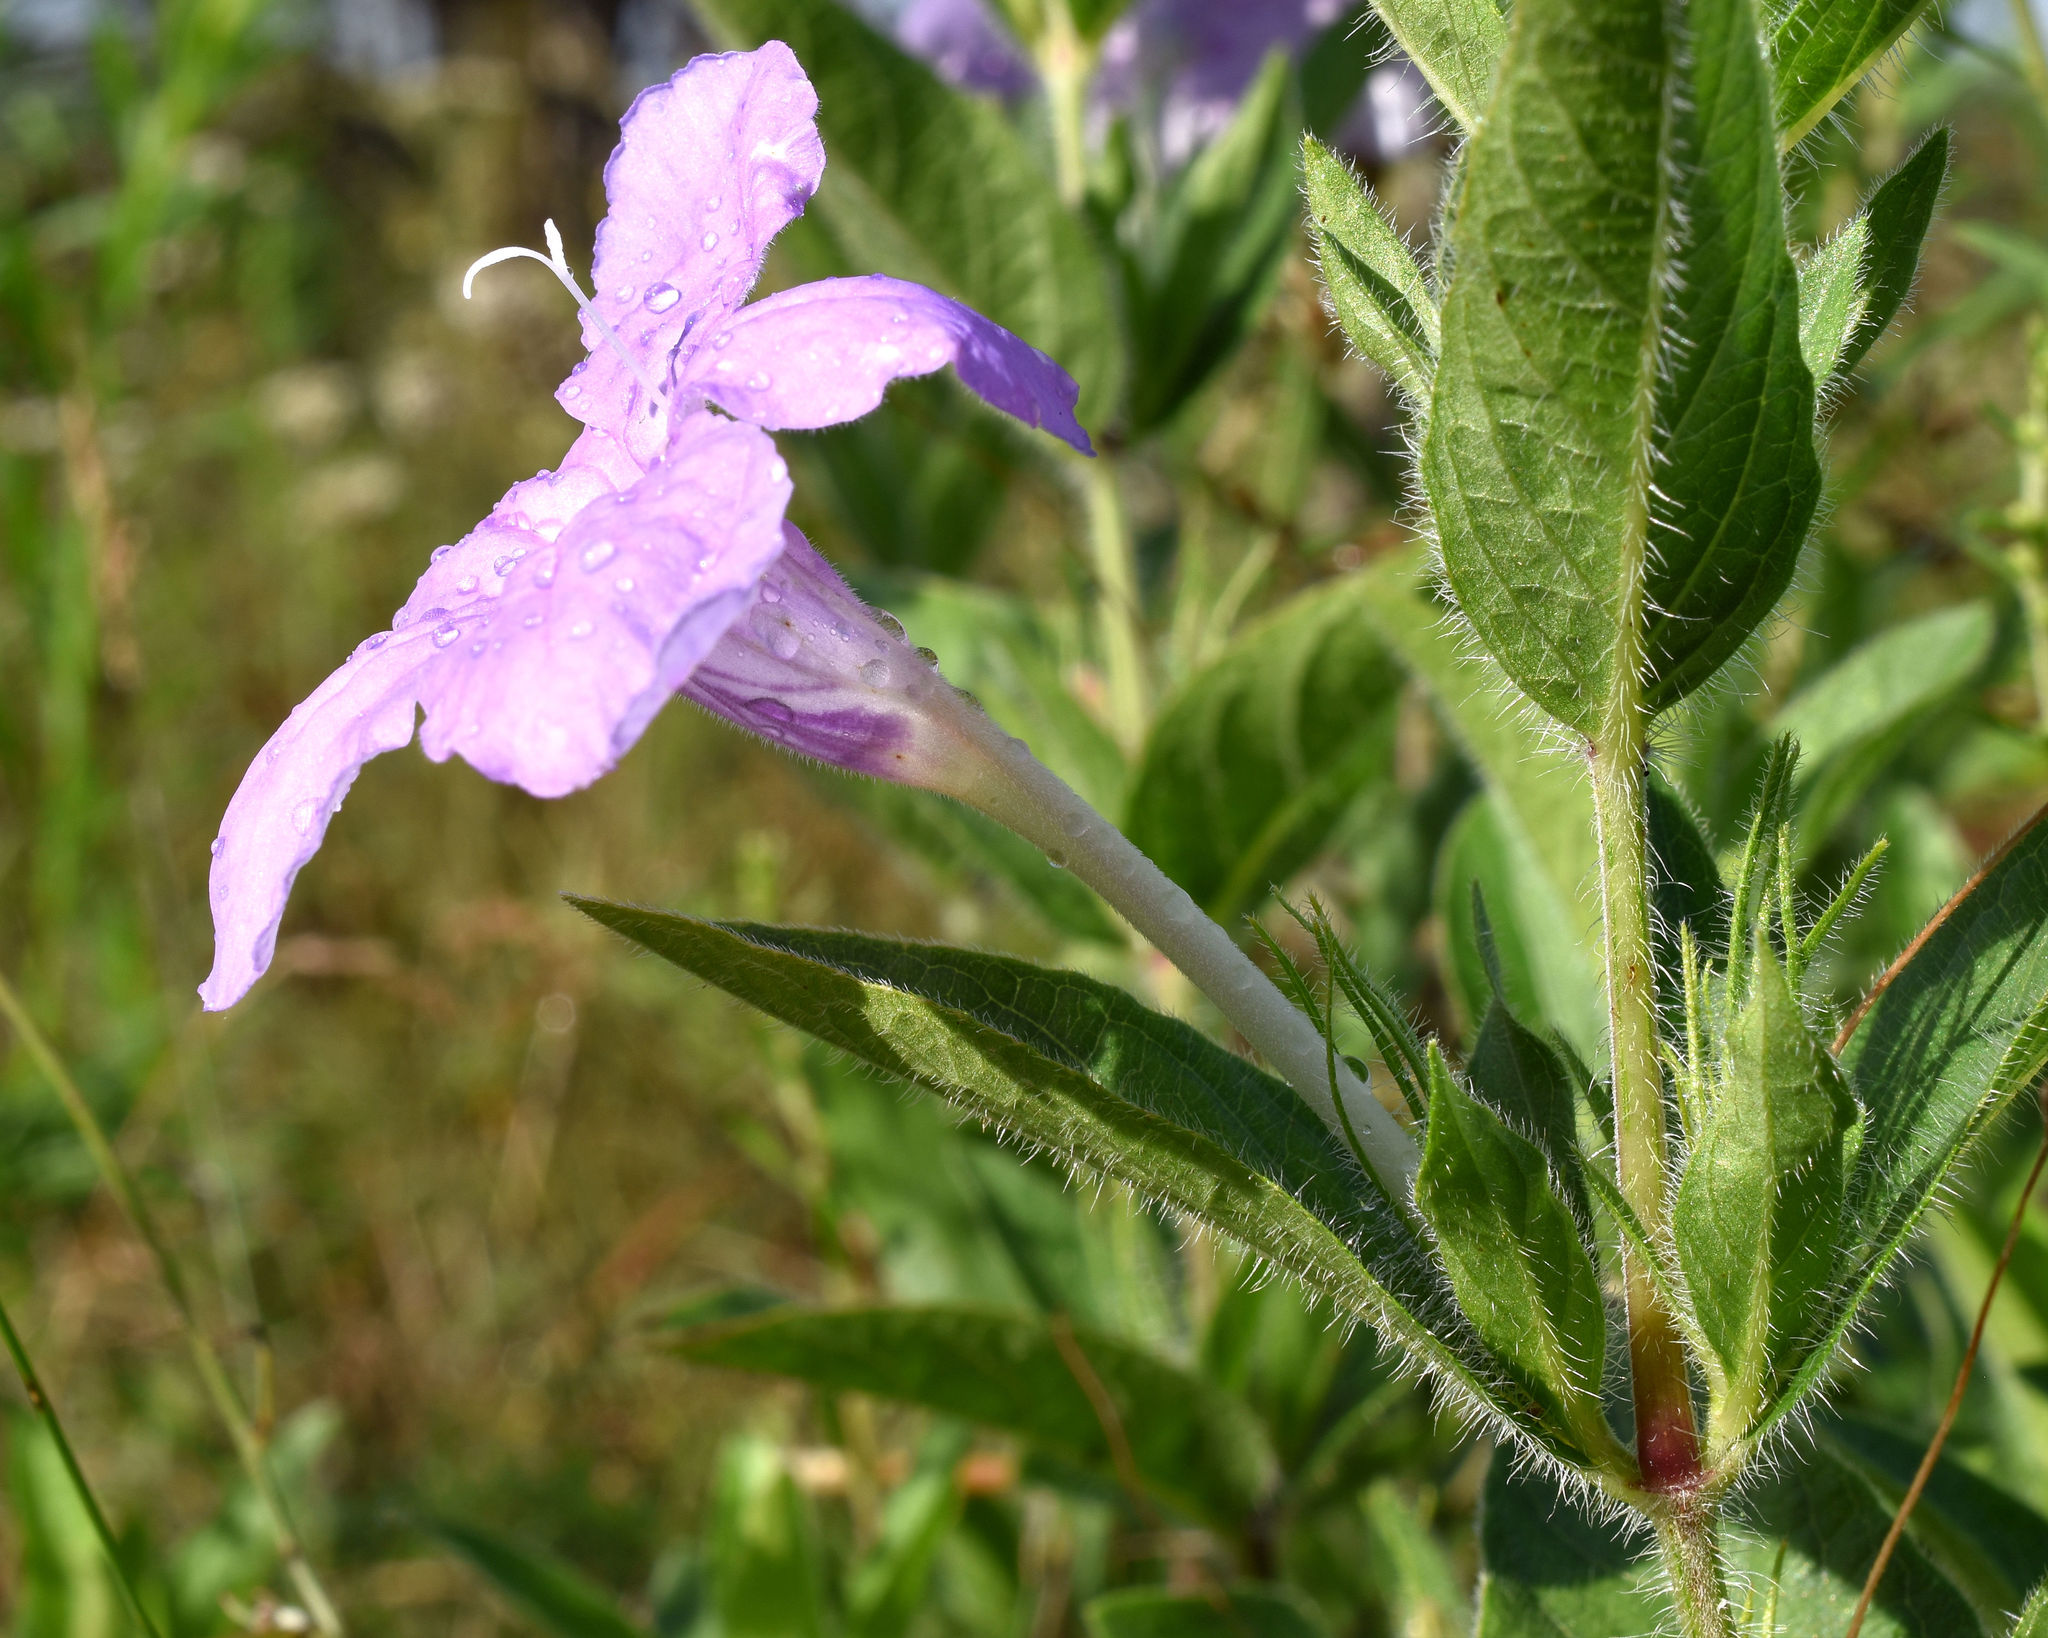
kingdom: Plantae
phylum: Tracheophyta
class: Magnoliopsida
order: Lamiales
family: Acanthaceae
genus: Ruellia
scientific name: Ruellia humilis
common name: Fringe-leaf ruellia
